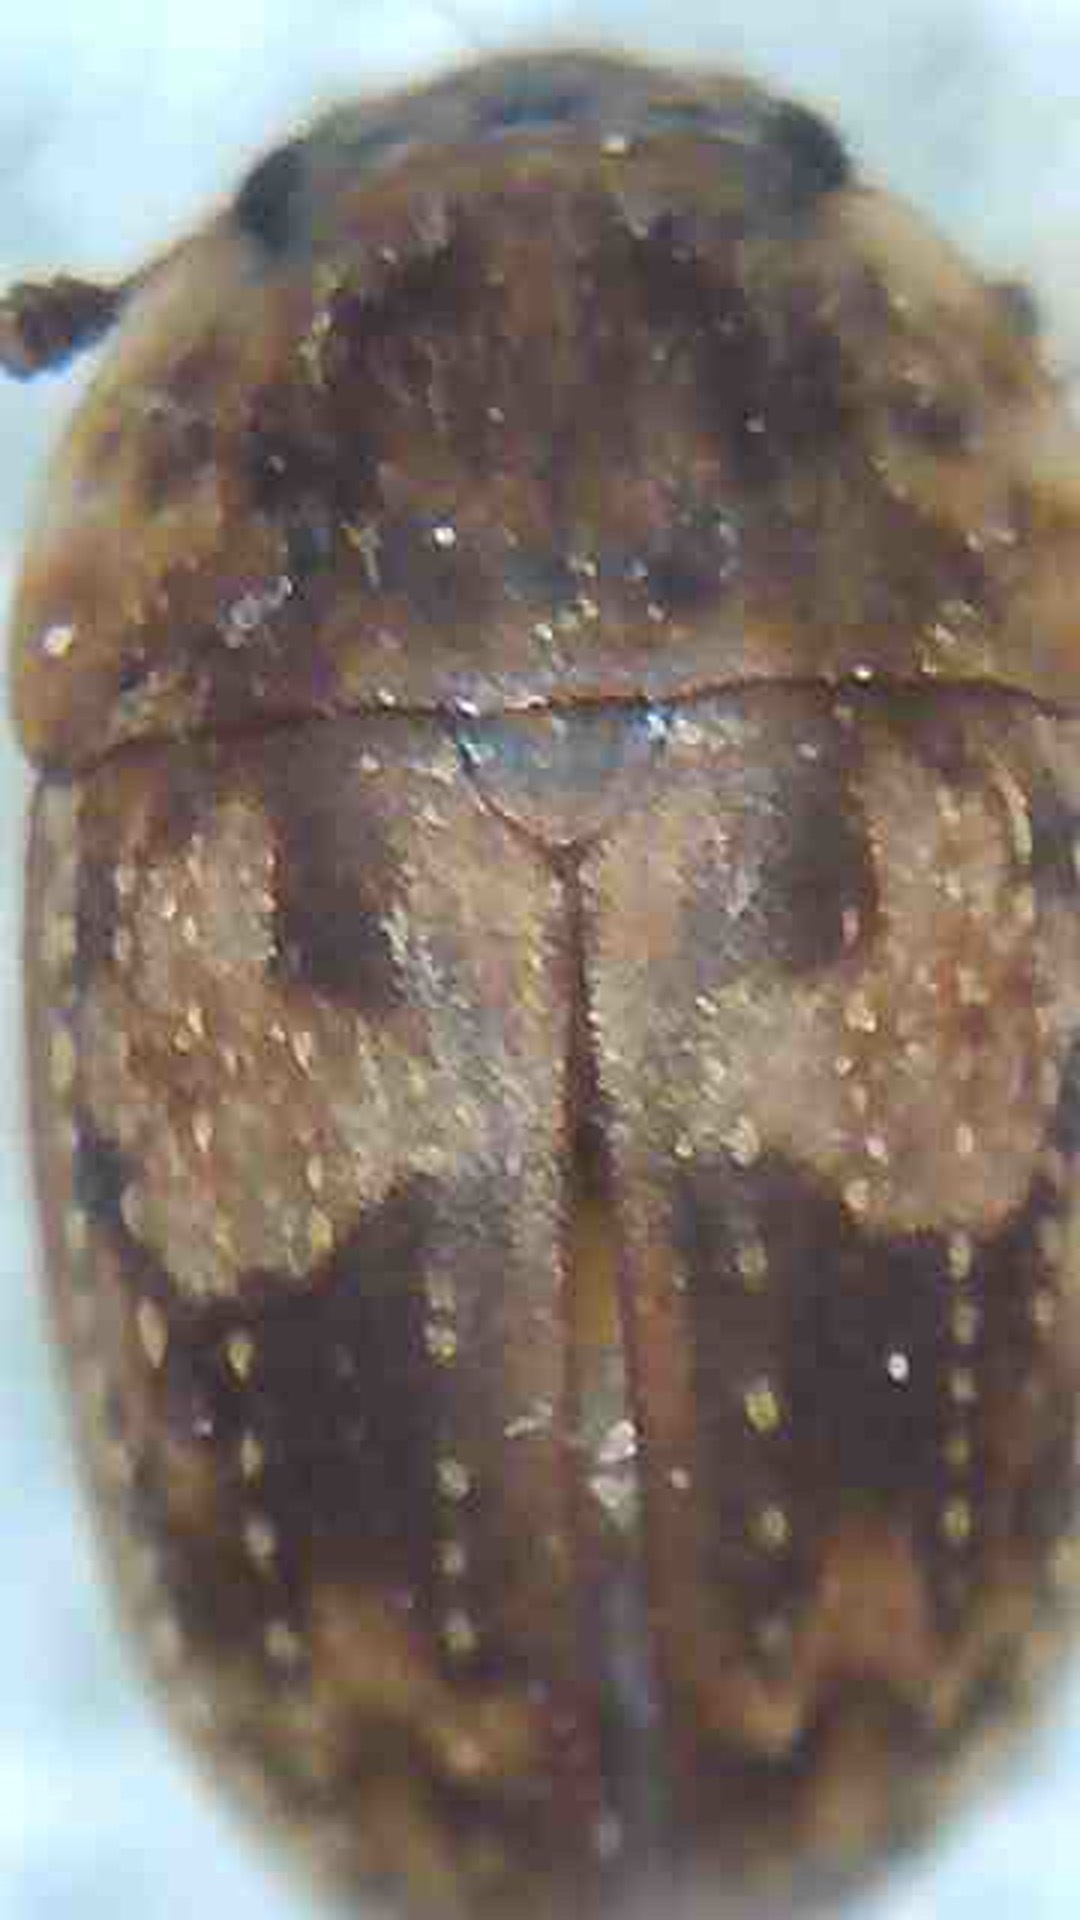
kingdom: Animalia
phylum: Arthropoda
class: Insecta
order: Coleoptera
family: Nitidulidae
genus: Homepuraea
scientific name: Homepuraea
